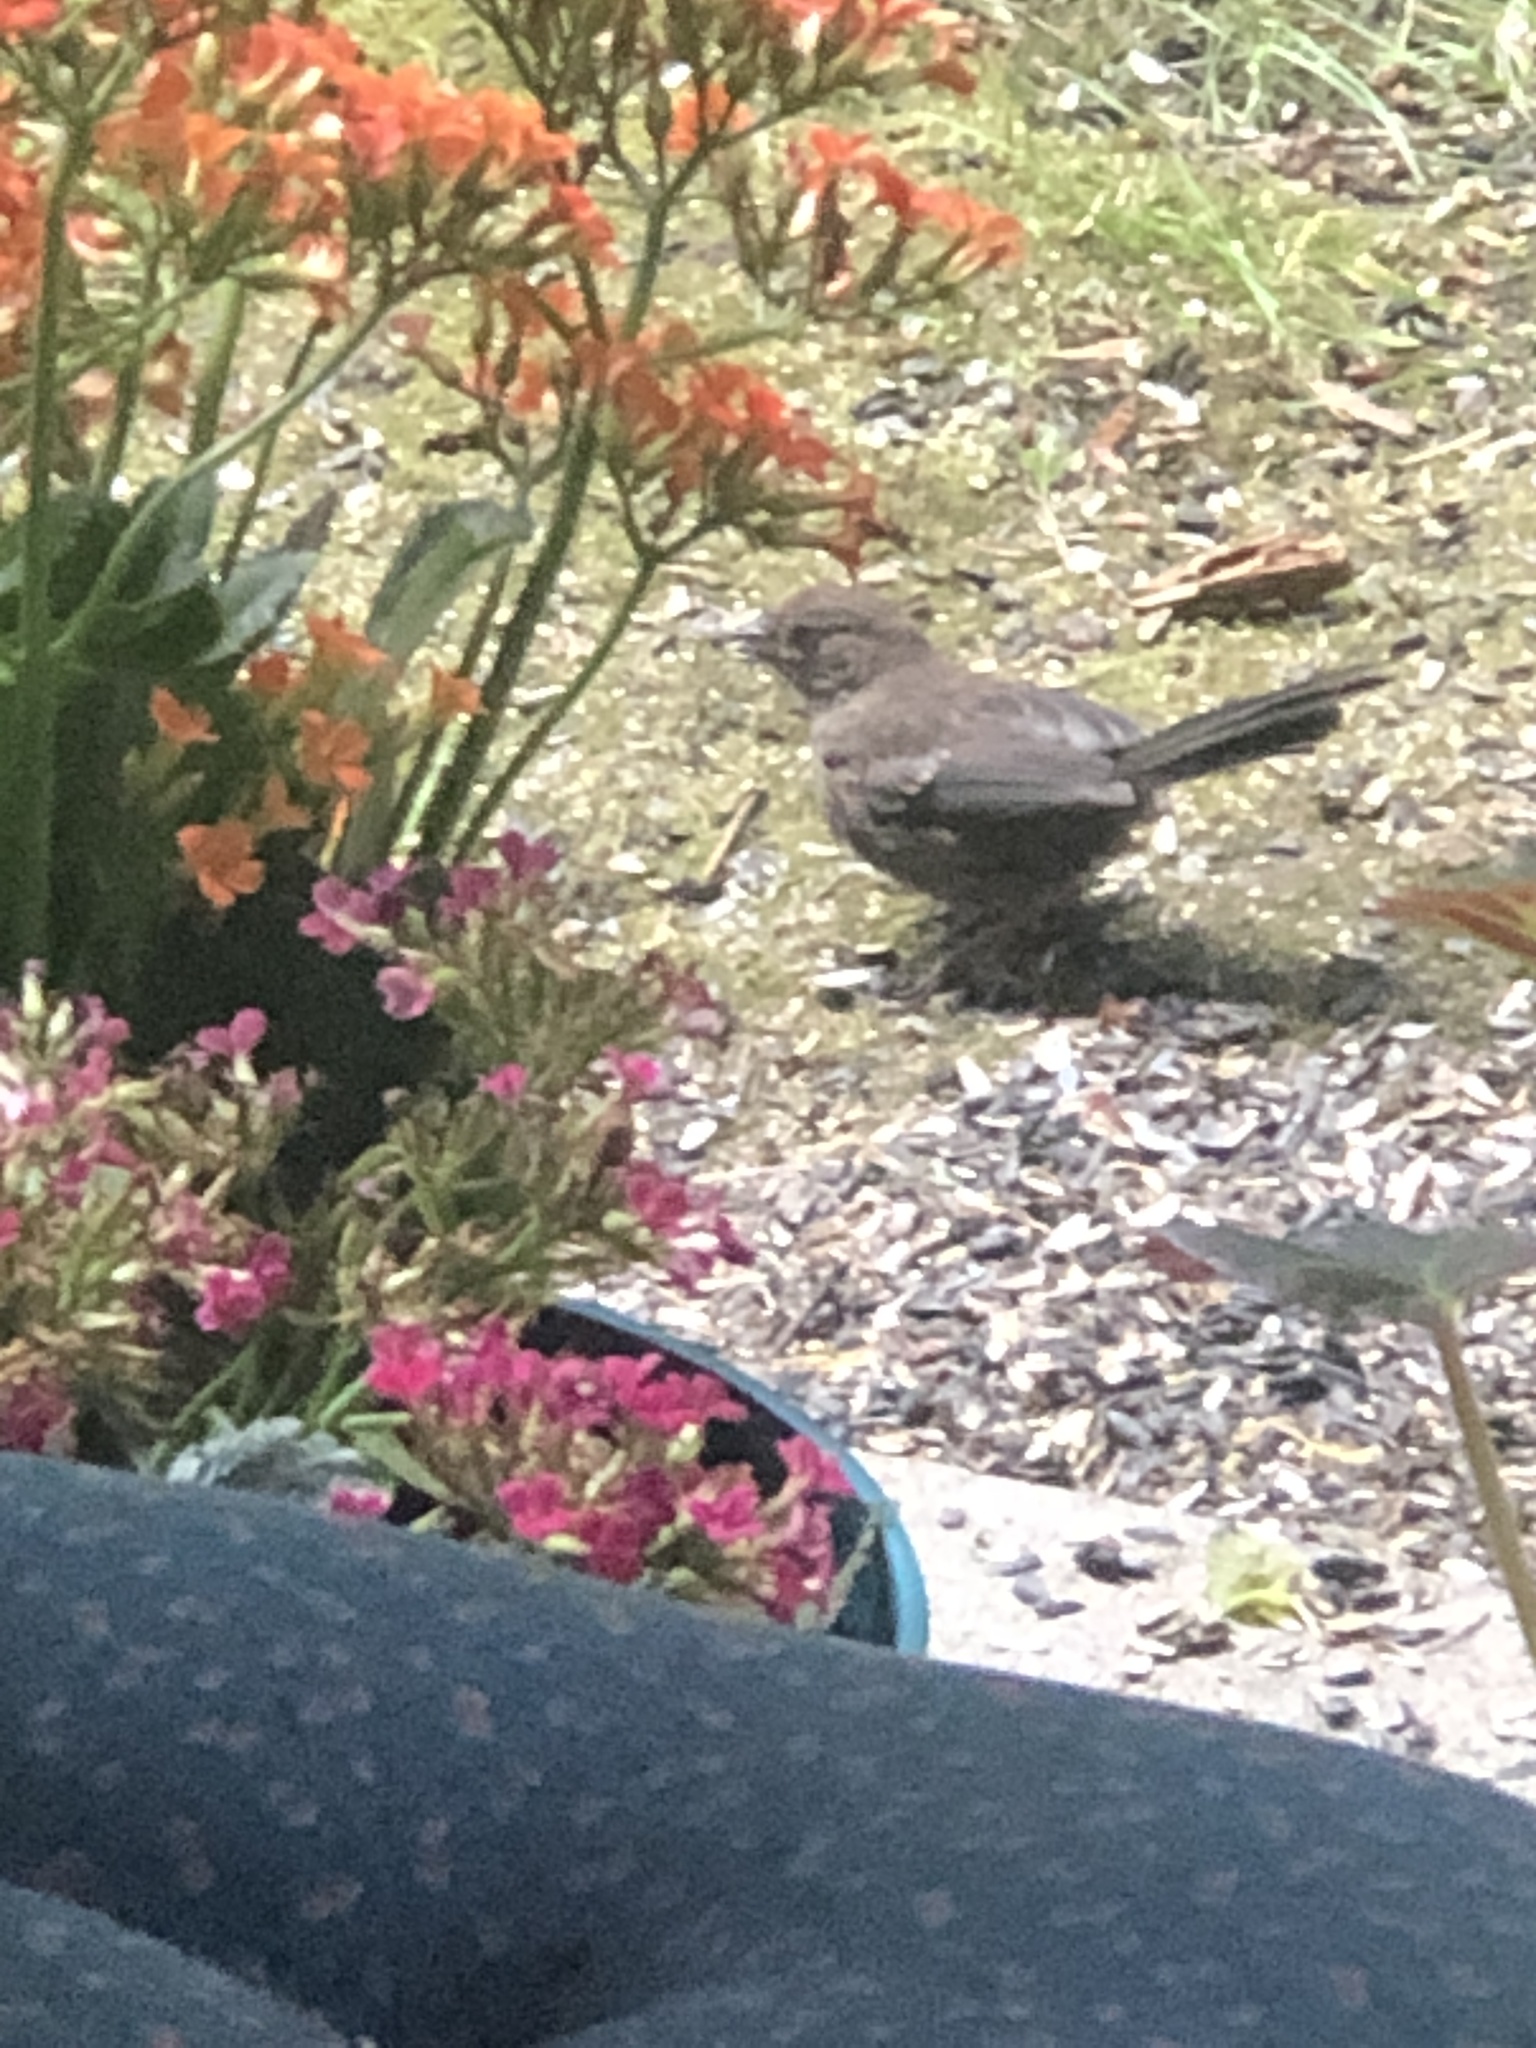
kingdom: Animalia
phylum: Chordata
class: Aves
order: Passeriformes
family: Passerellidae
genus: Pipilo
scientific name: Pipilo maculatus
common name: Spotted towhee
